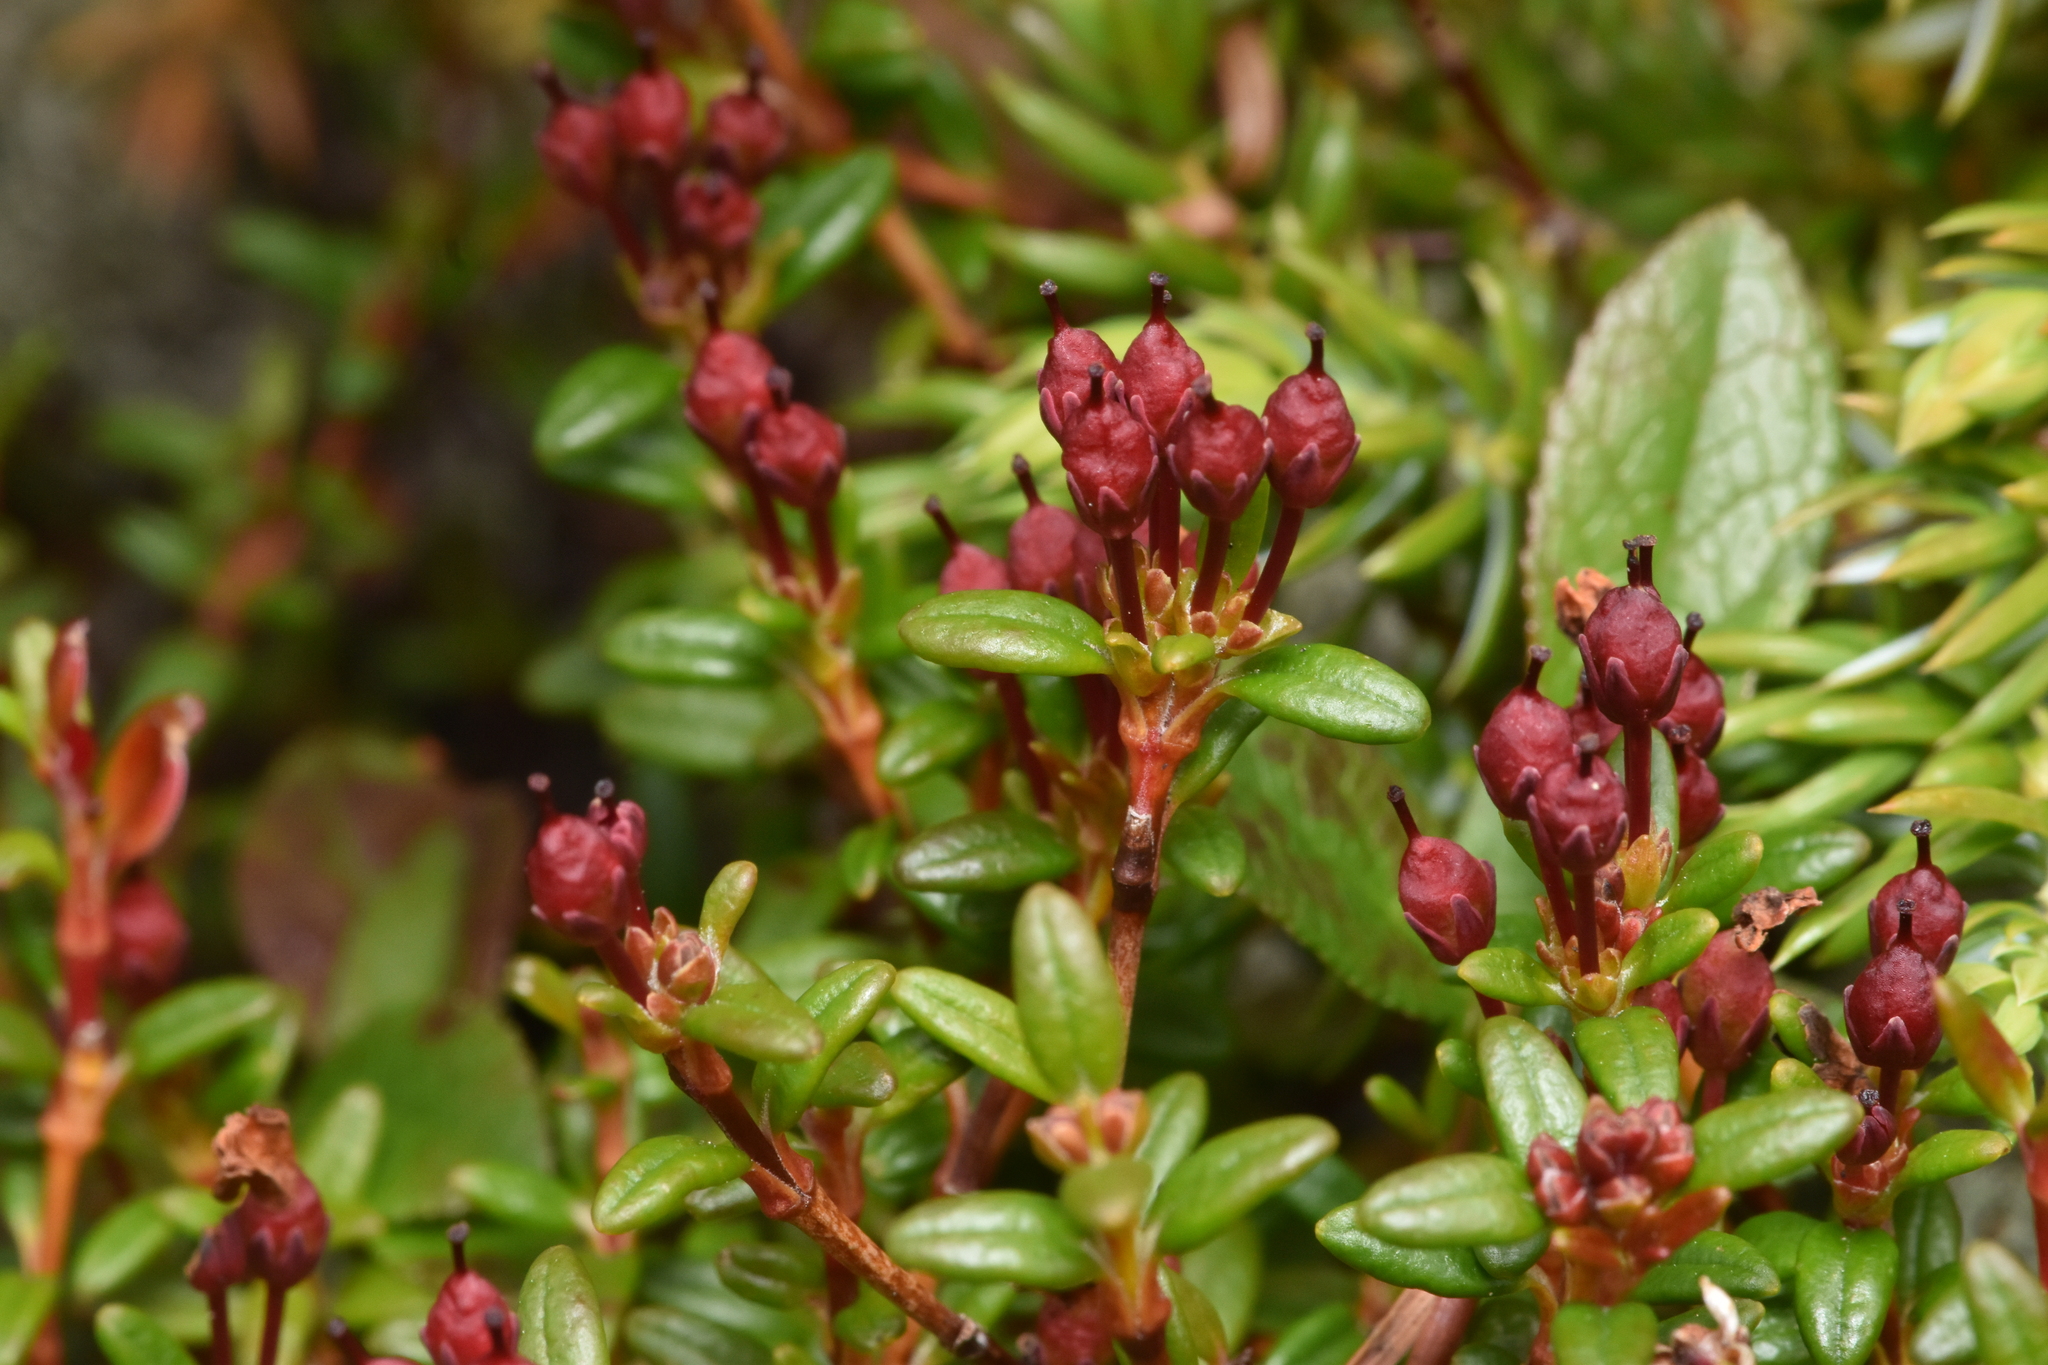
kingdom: Plantae
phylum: Tracheophyta
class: Magnoliopsida
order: Ericales
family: Ericaceae
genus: Kalmia
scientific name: Kalmia procumbens
